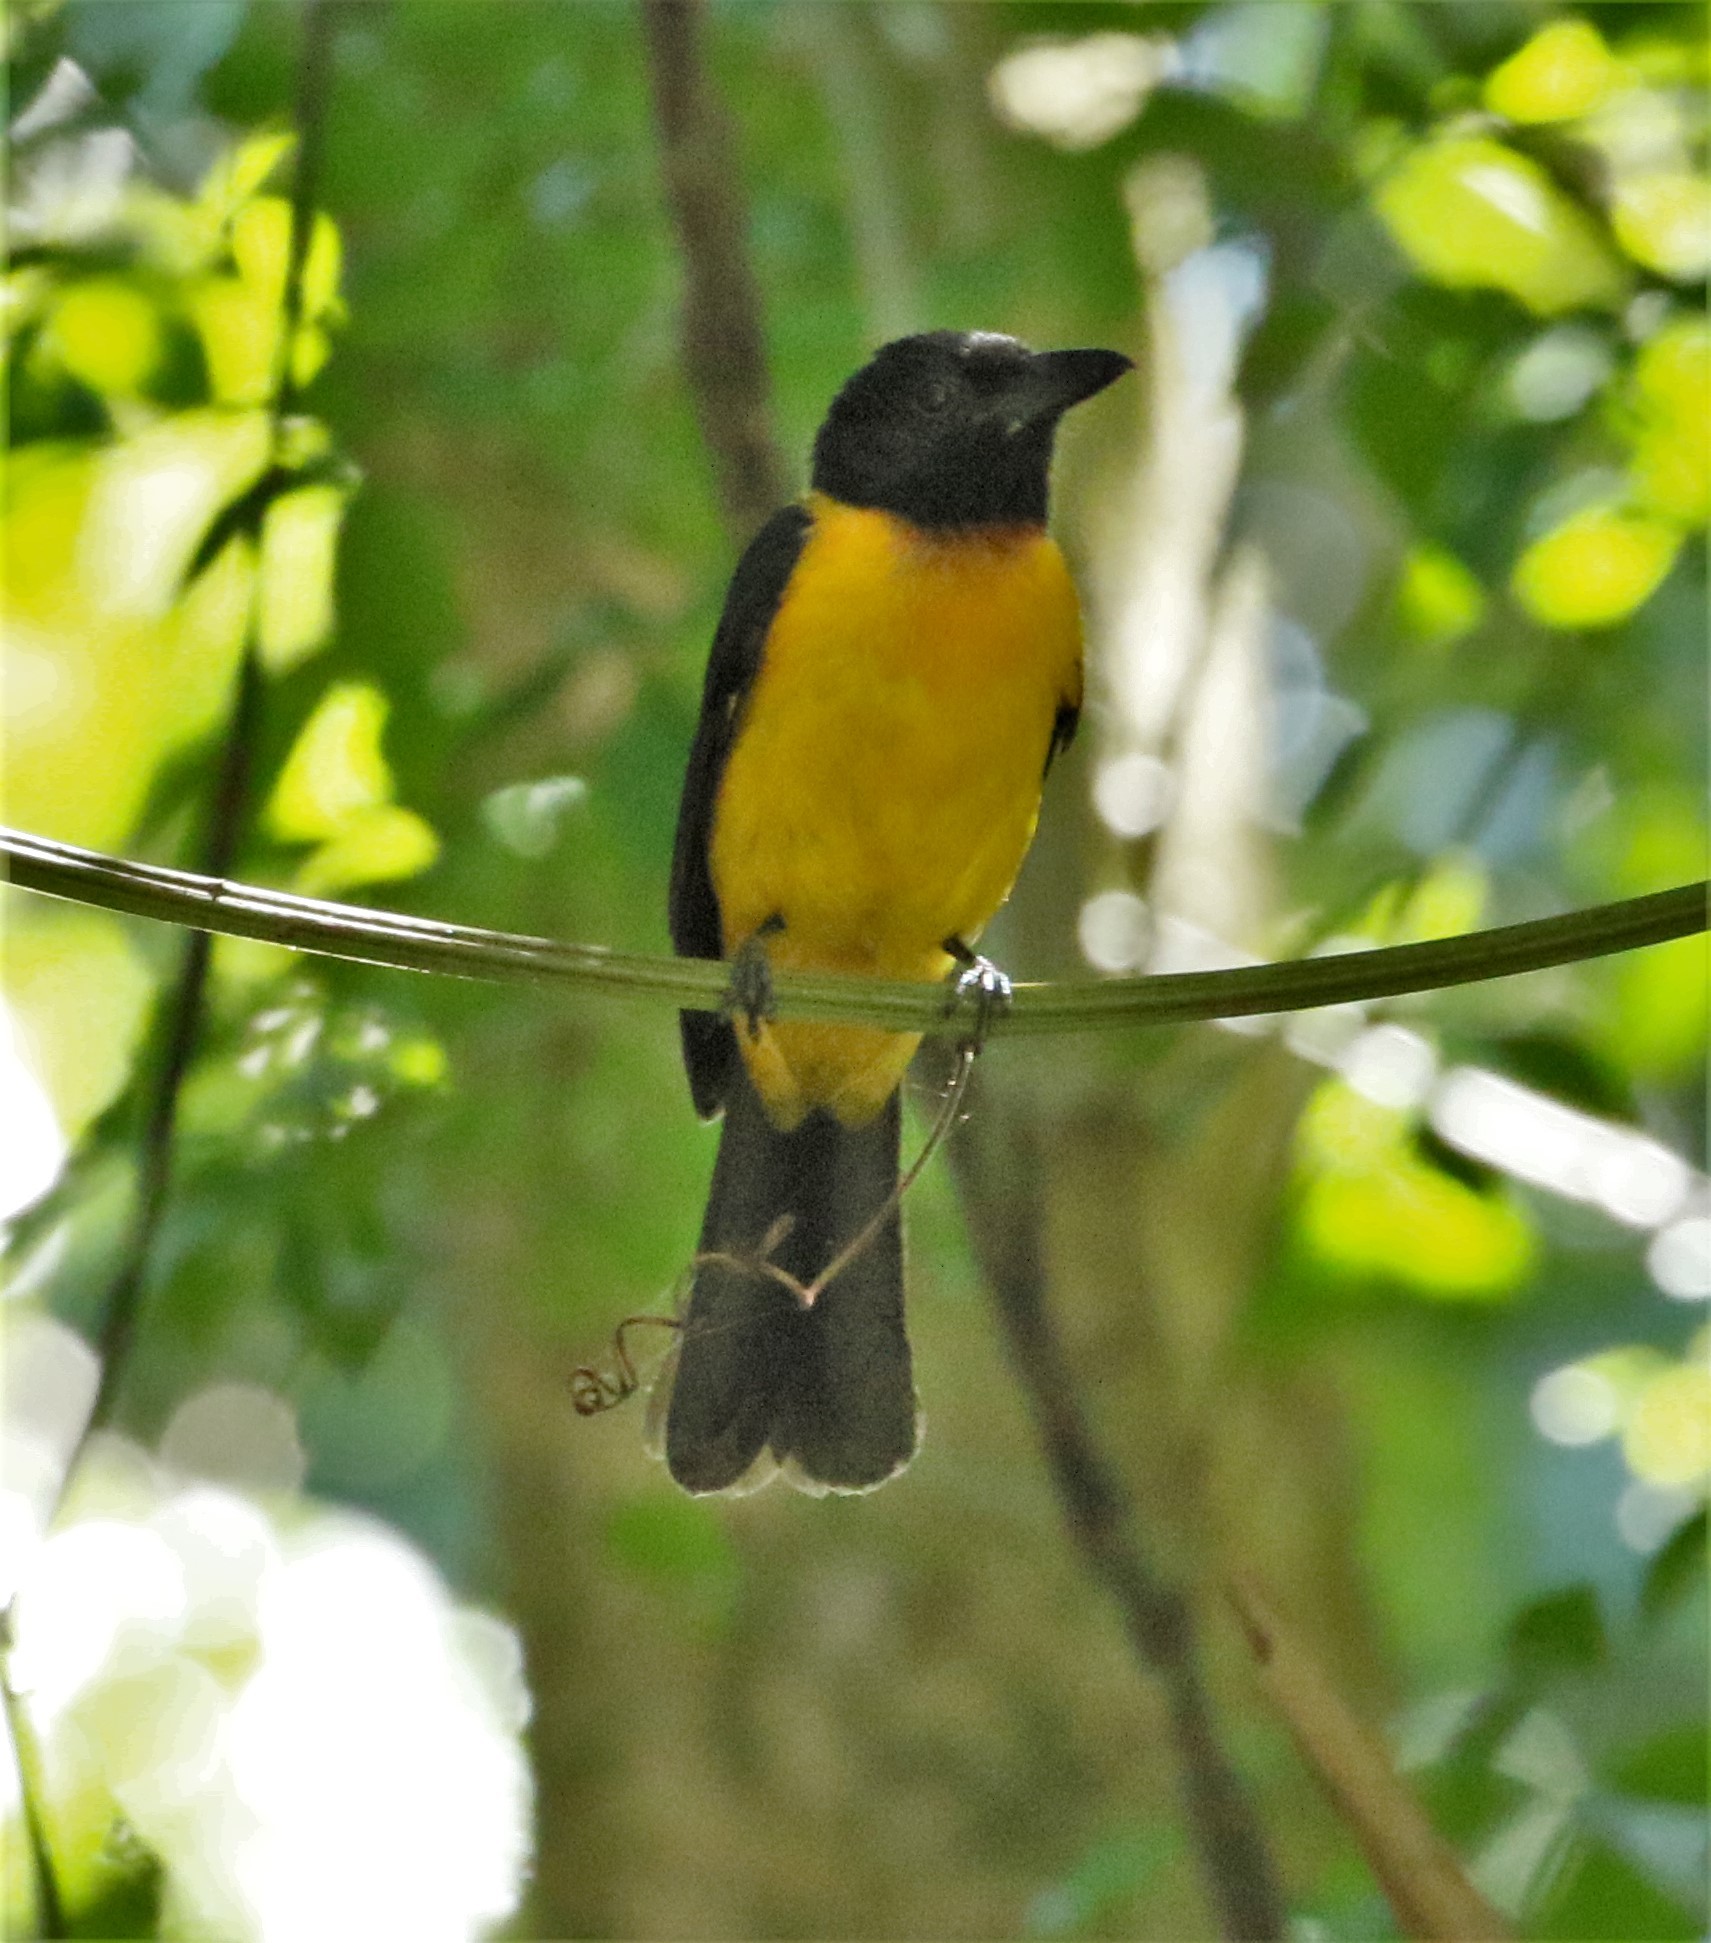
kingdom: Animalia
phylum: Chordata
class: Aves
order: Passeriformes
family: Thraupidae
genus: Lanio
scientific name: Lanio aurantius
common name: Black-throated shrike-tanager
